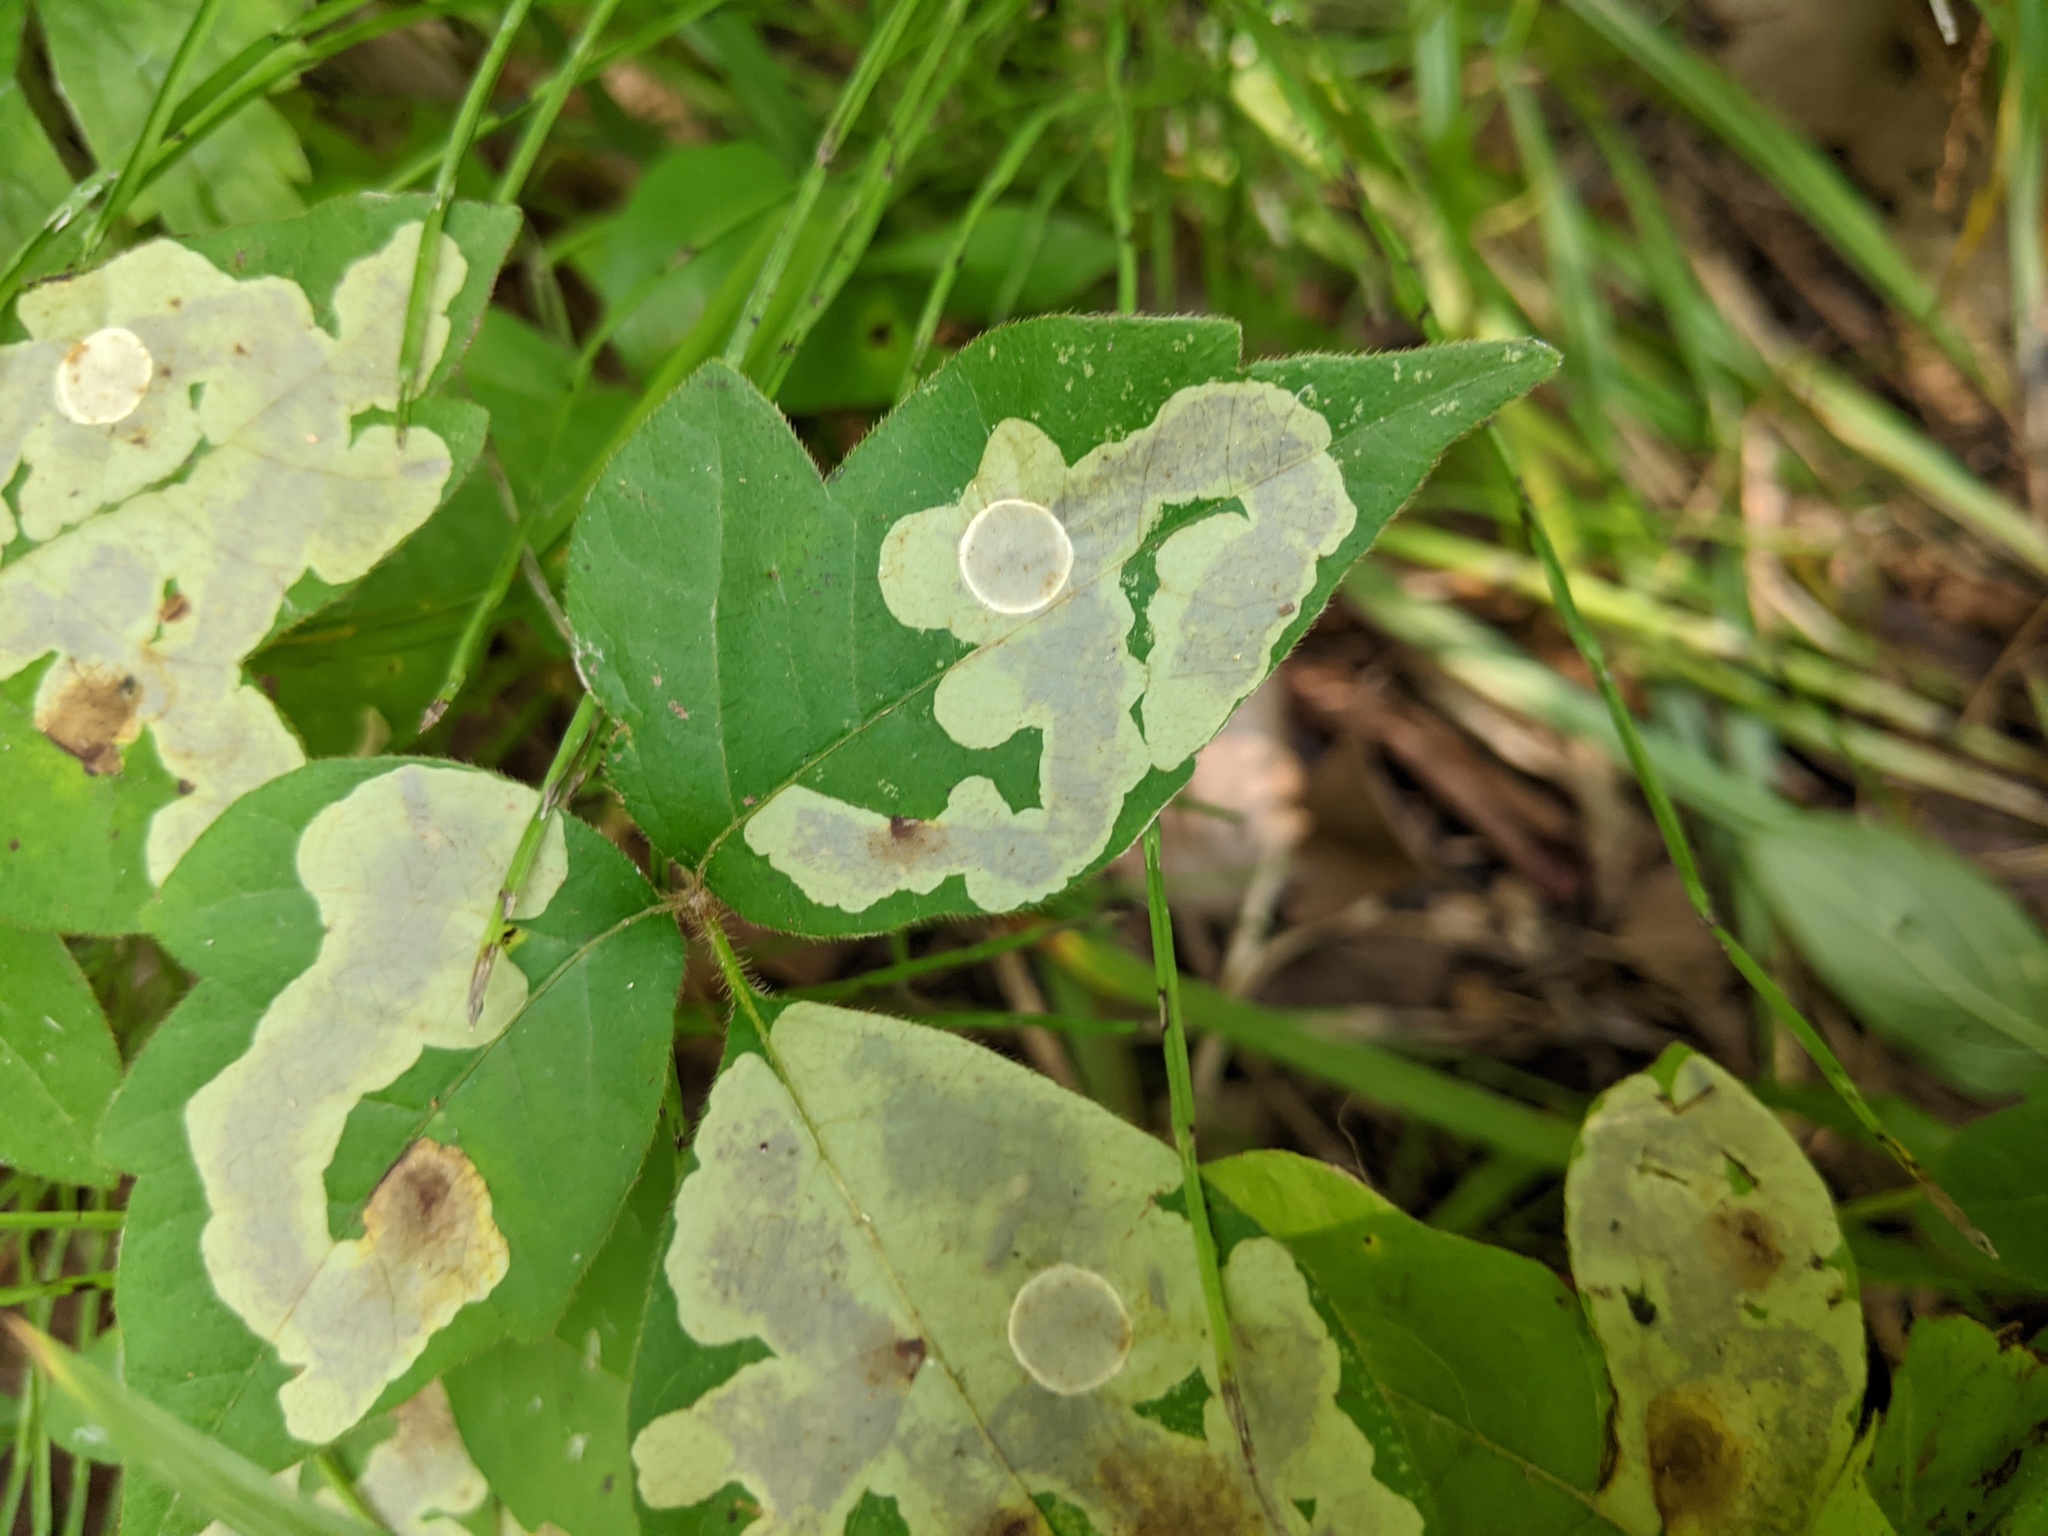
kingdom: Animalia
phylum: Arthropoda
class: Insecta
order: Lepidoptera
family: Gracillariidae
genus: Cameraria
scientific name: Cameraria guttifinitella
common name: Poison ivy leaf-miner moth
